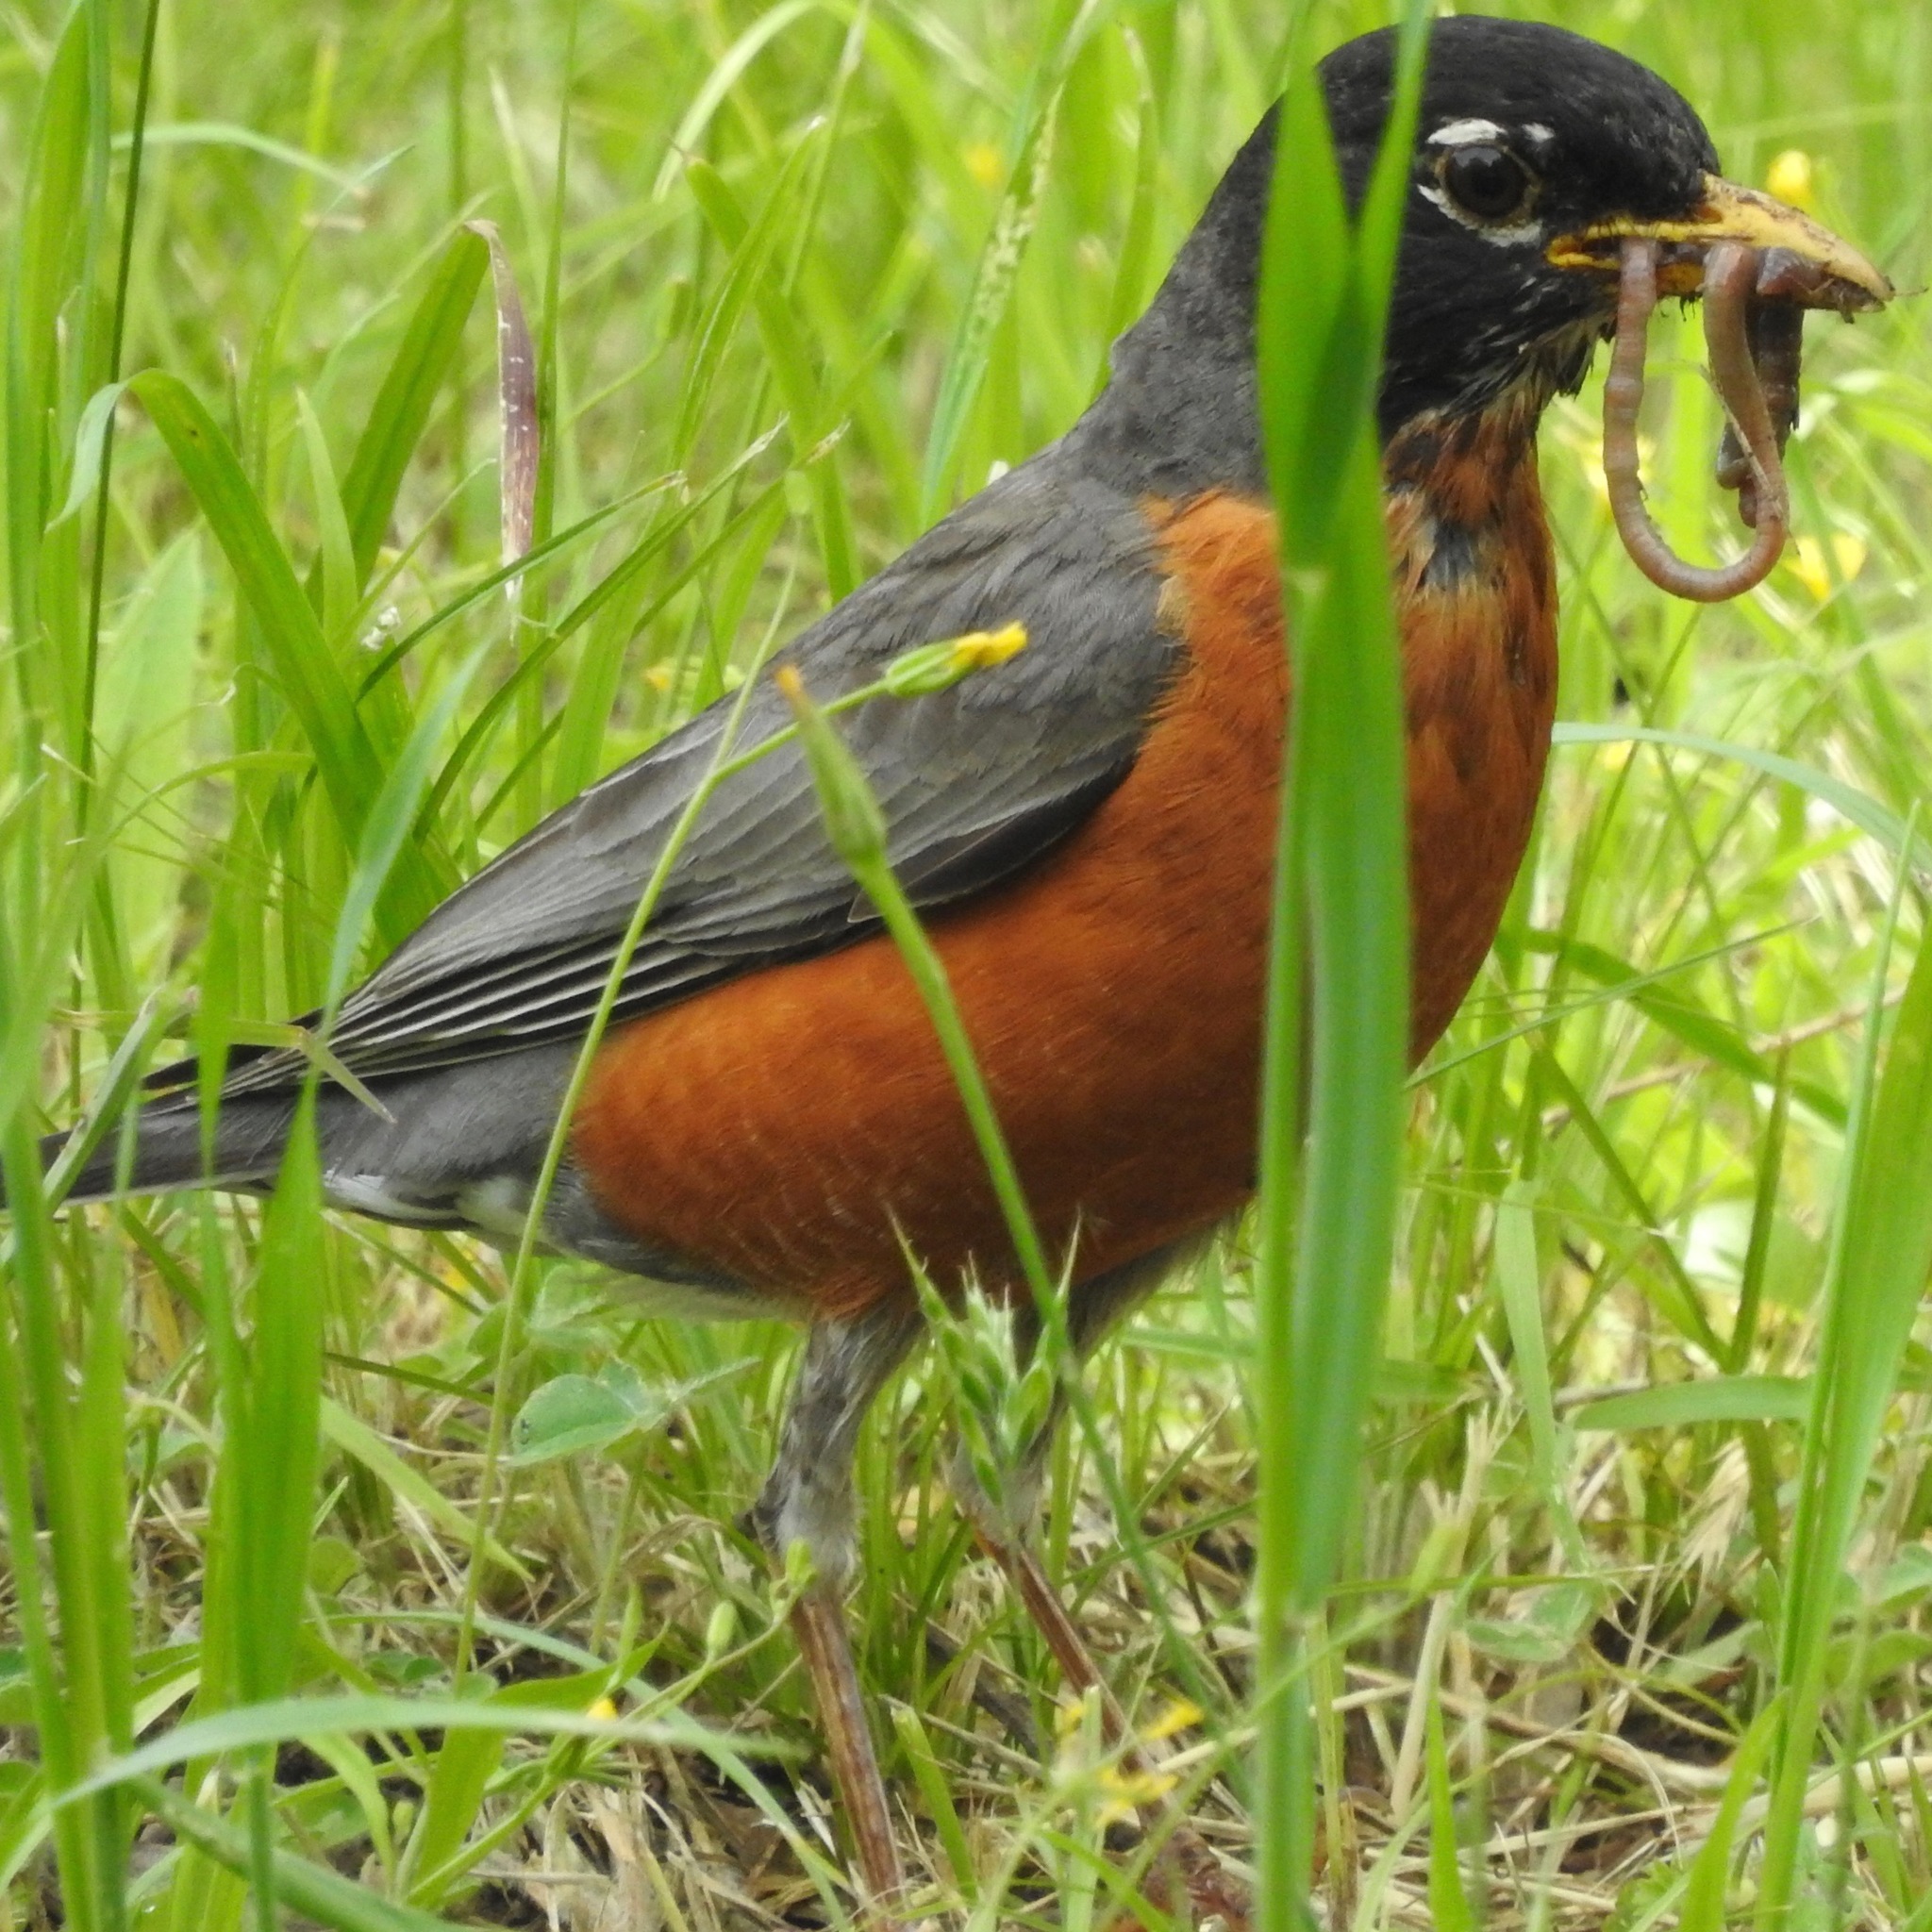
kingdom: Animalia
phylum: Chordata
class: Aves
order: Passeriformes
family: Turdidae
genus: Turdus
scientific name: Turdus migratorius
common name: American robin
